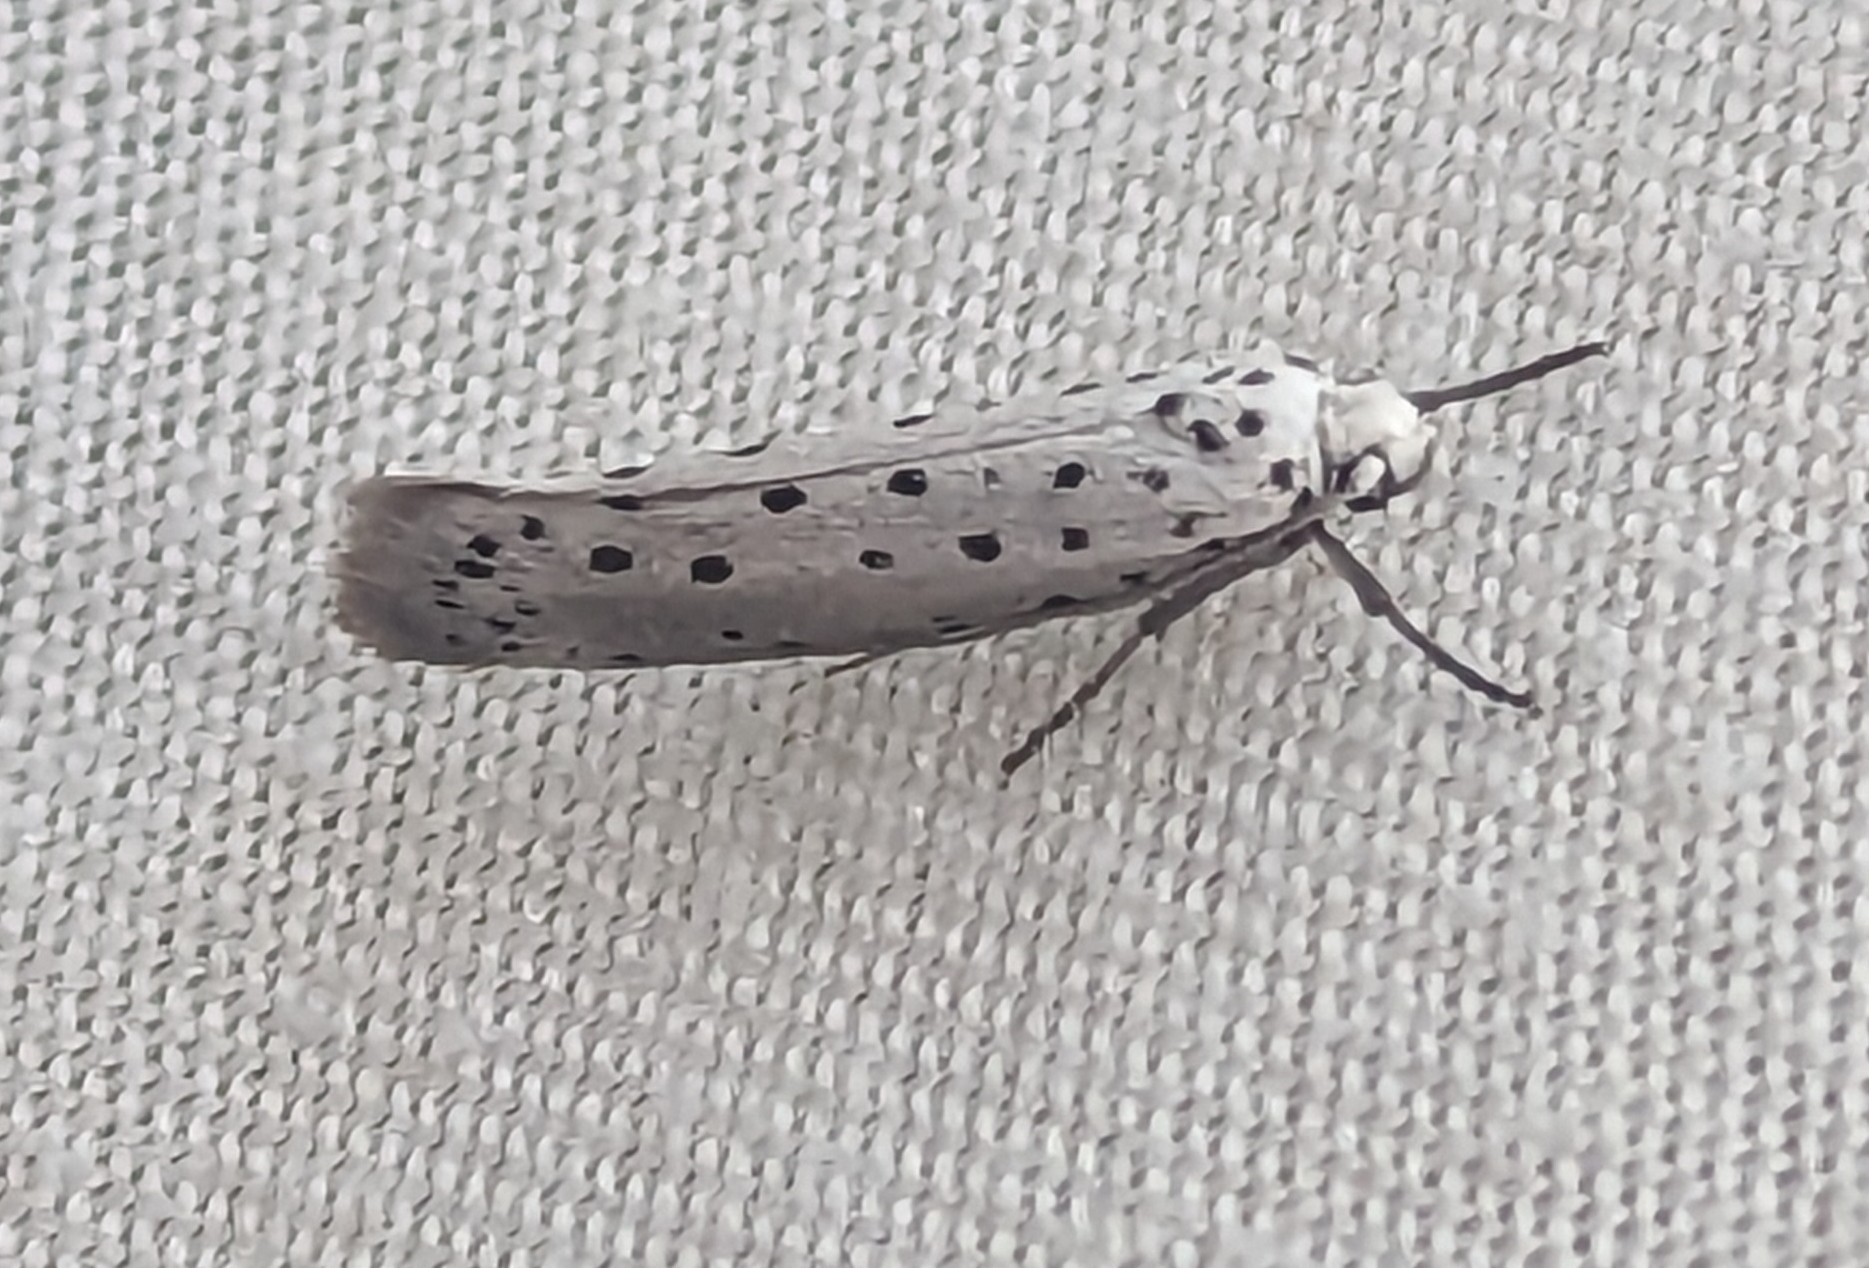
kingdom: Animalia
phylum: Arthropoda
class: Insecta
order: Lepidoptera
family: Yponomeutidae
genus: Yponomeuta
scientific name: Yponomeuta
